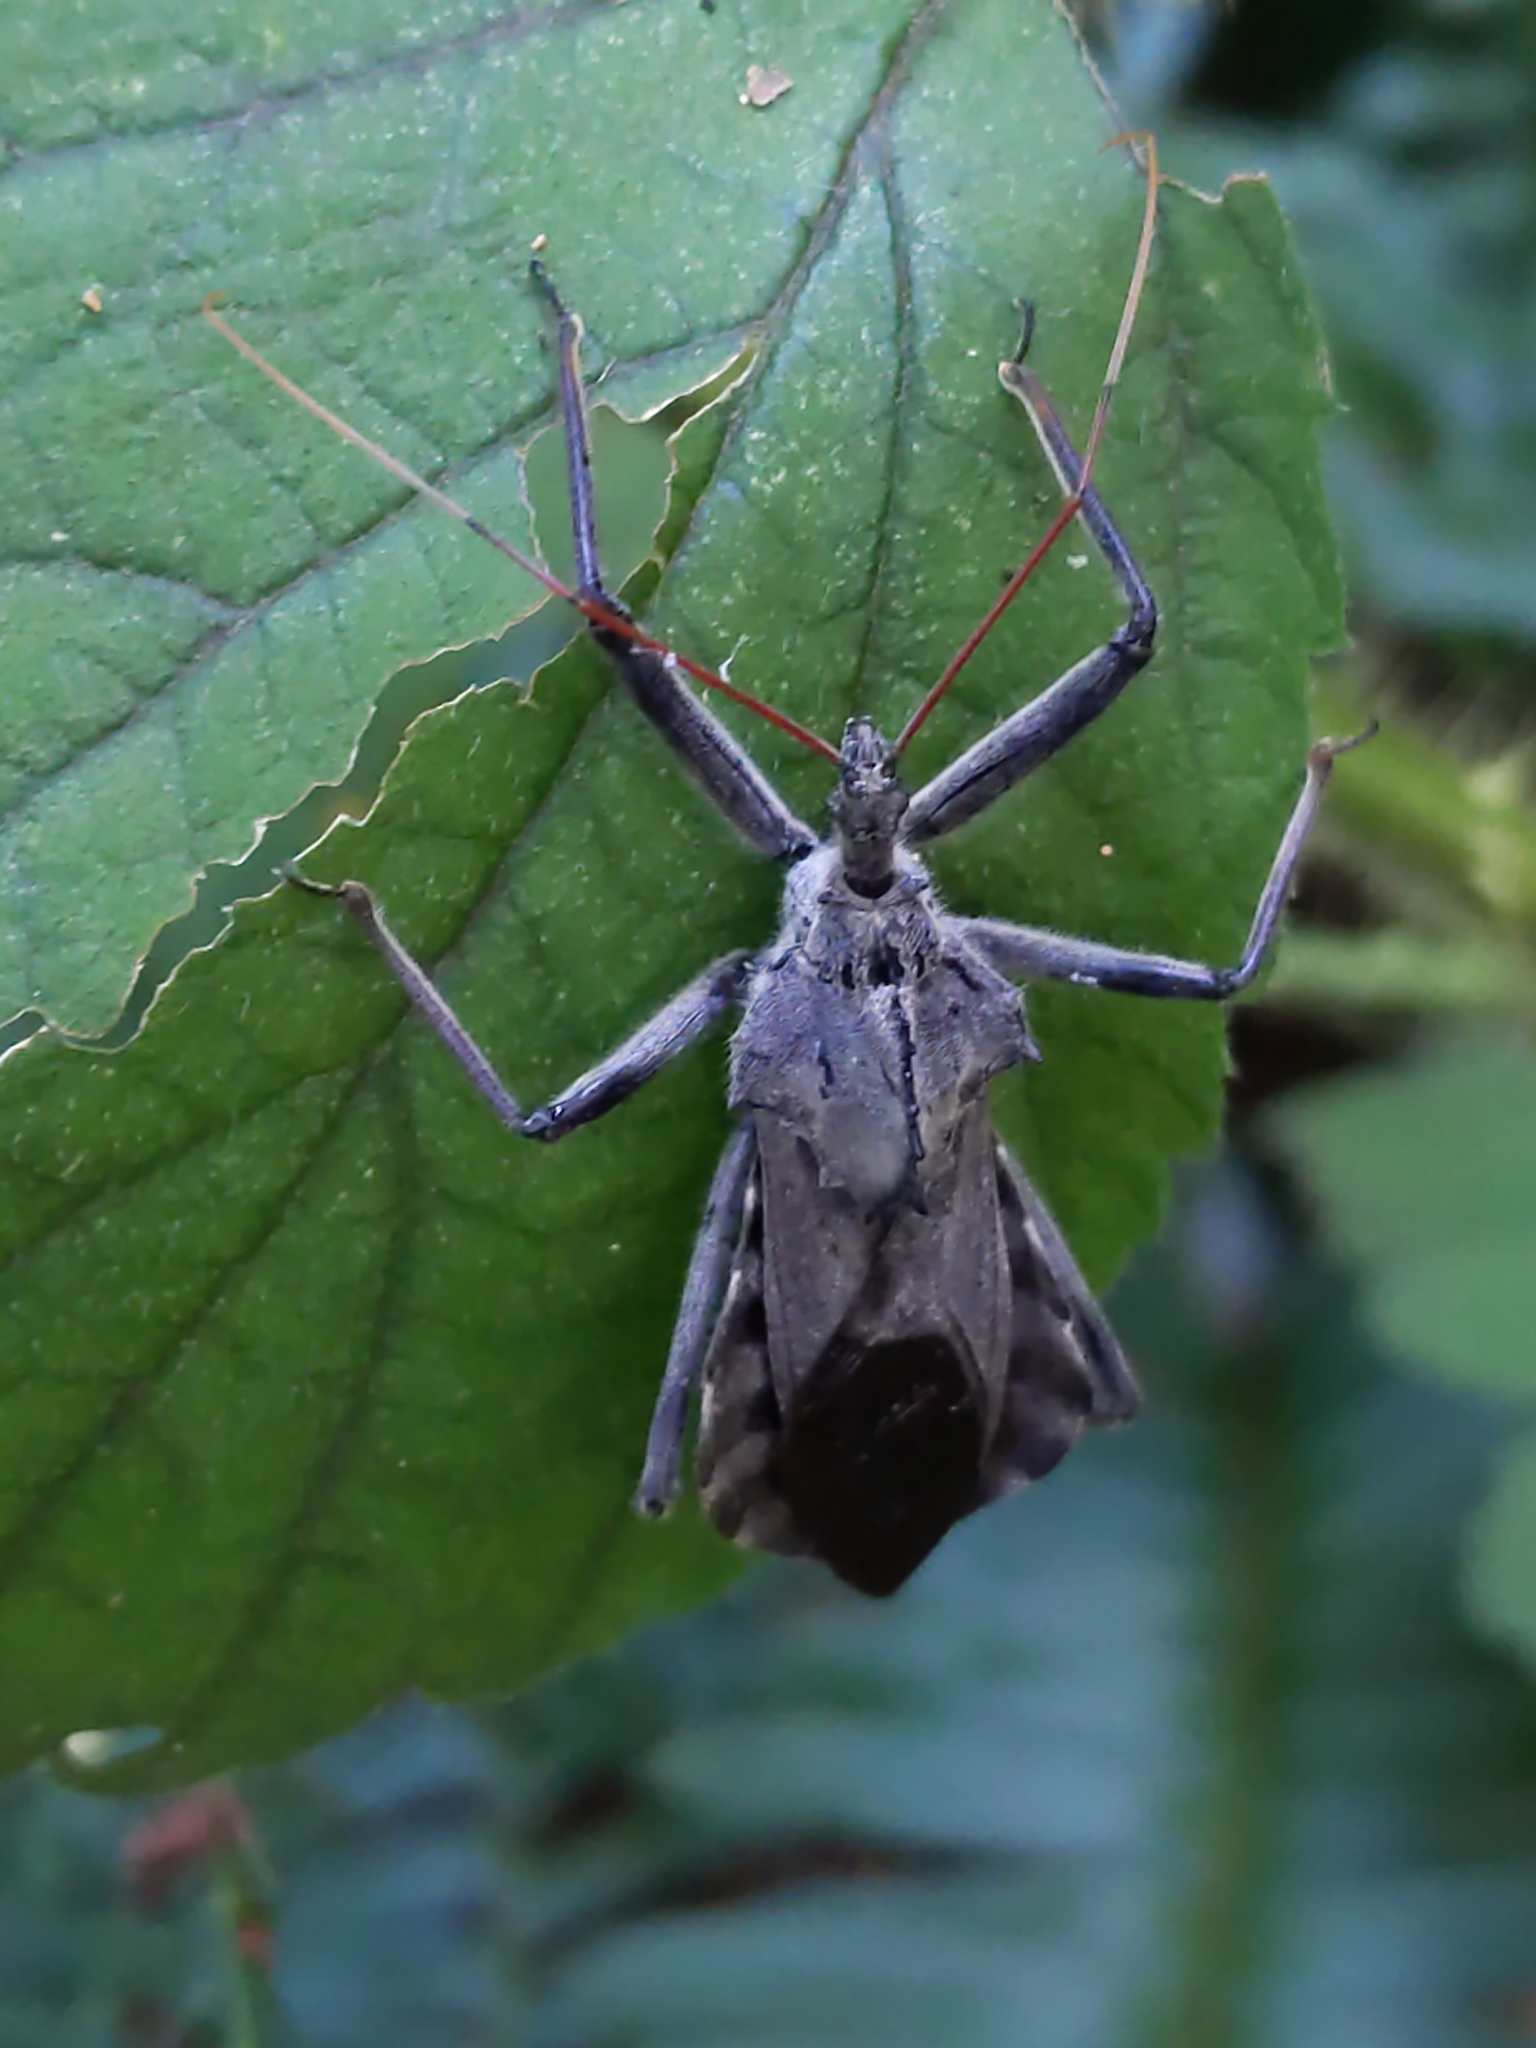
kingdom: Animalia
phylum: Arthropoda
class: Insecta
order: Hemiptera
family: Reduviidae
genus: Arilus
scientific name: Arilus cristatus
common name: North american wheel bug
